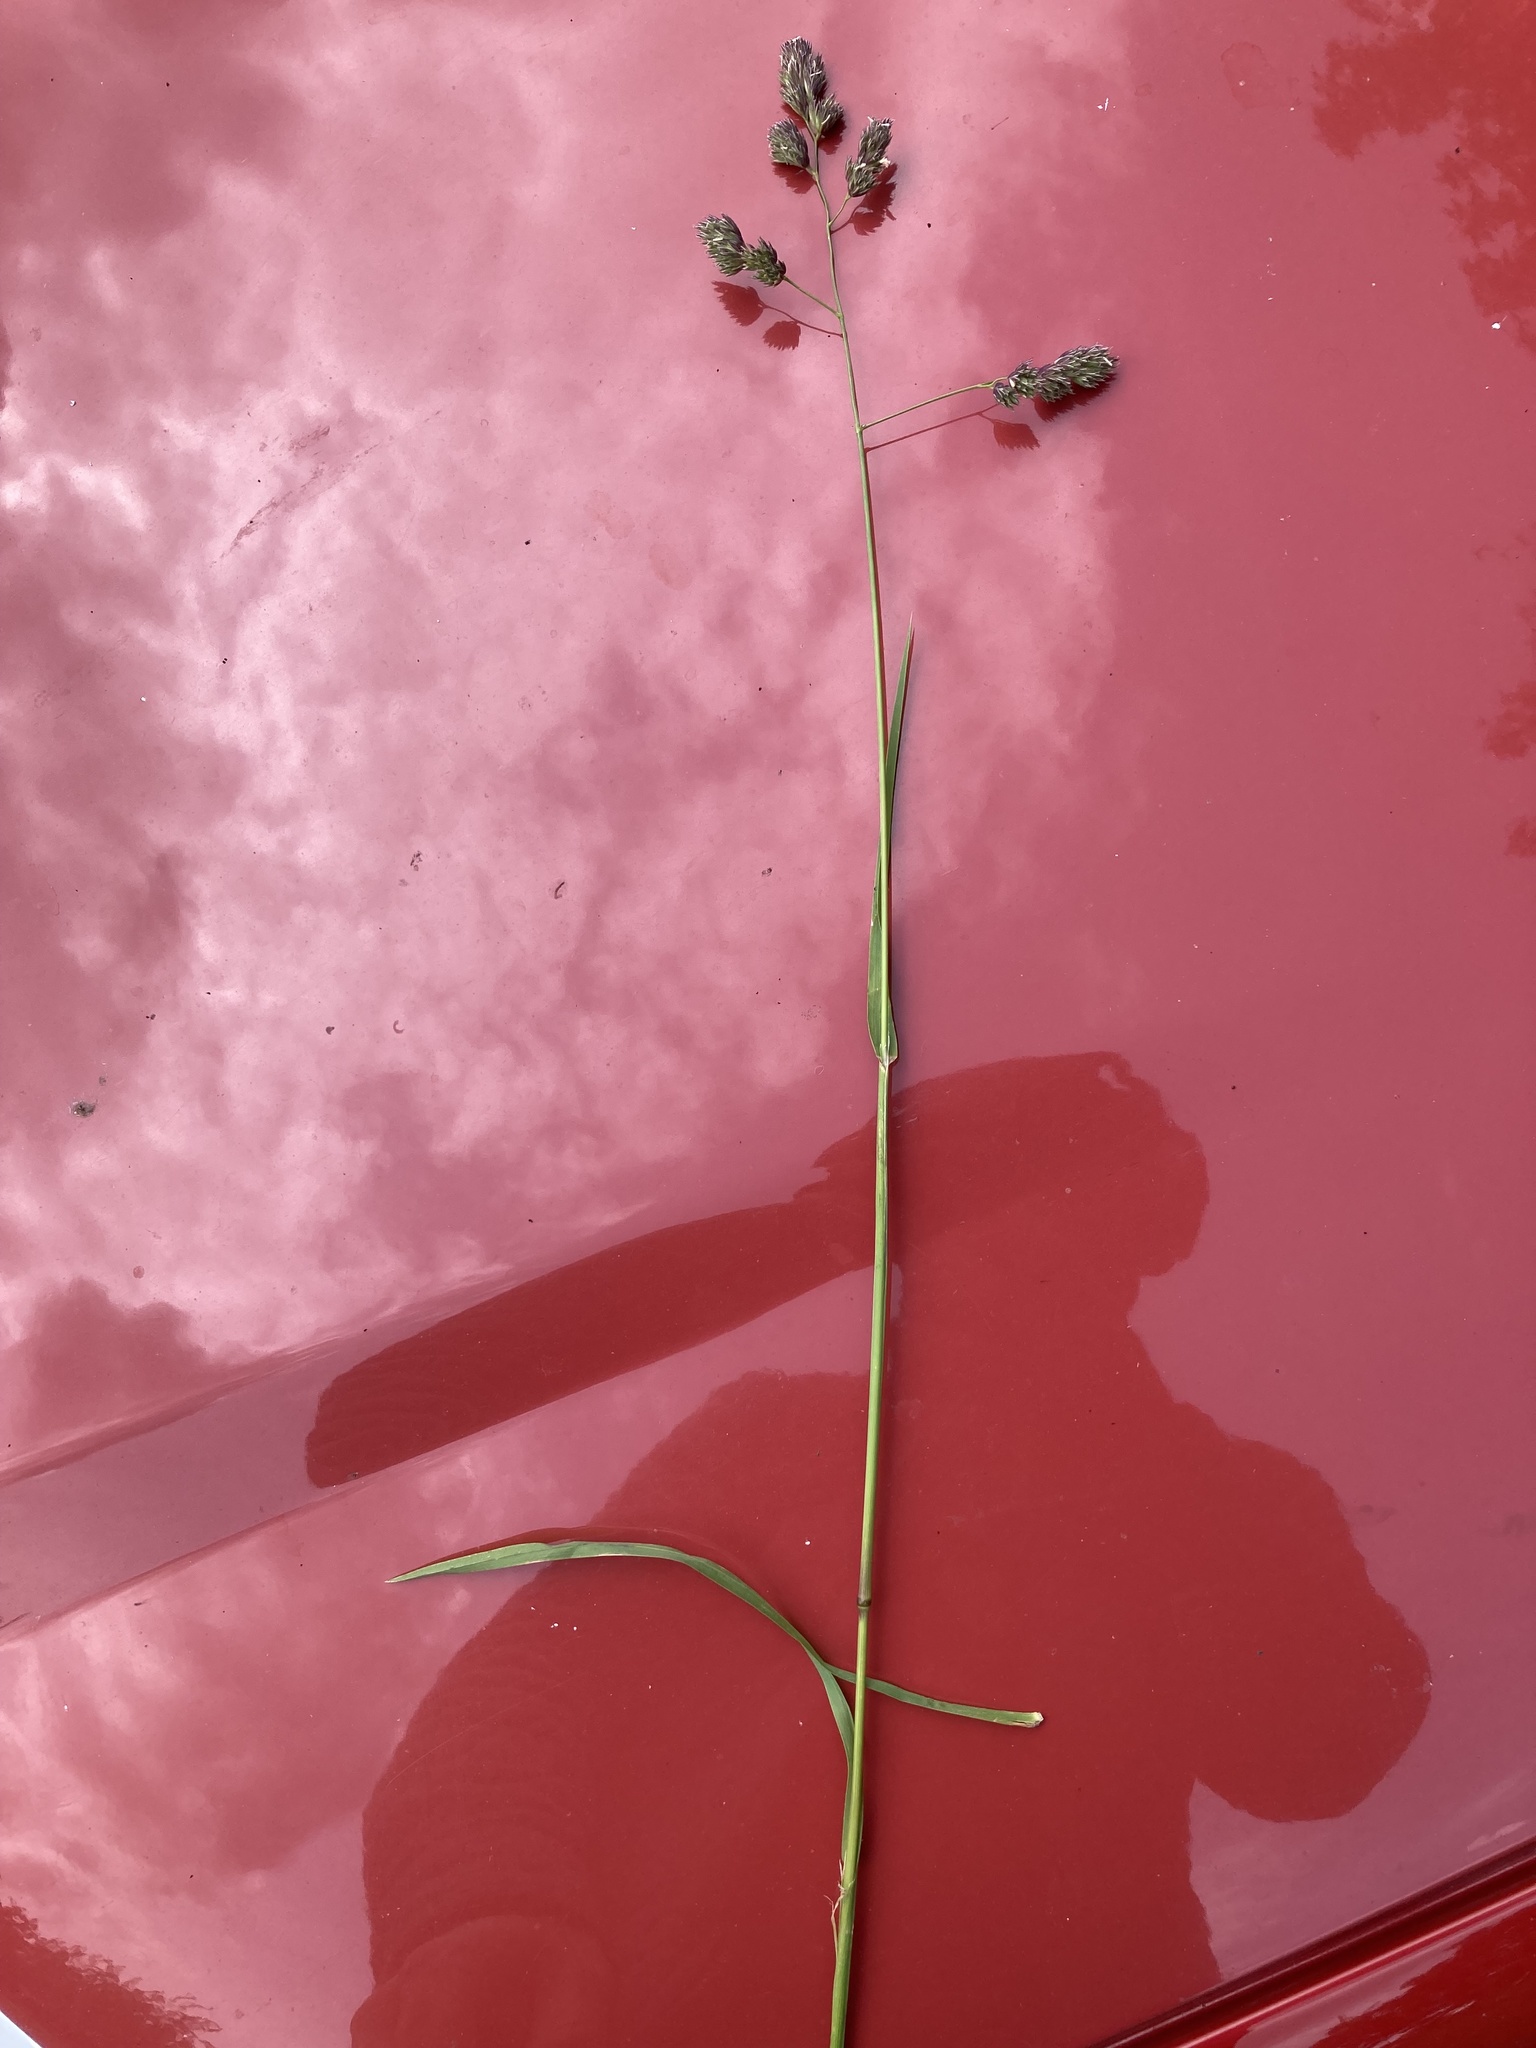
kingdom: Plantae
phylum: Tracheophyta
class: Liliopsida
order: Poales
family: Poaceae
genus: Dactylis
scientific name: Dactylis glomerata
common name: Orchardgrass
